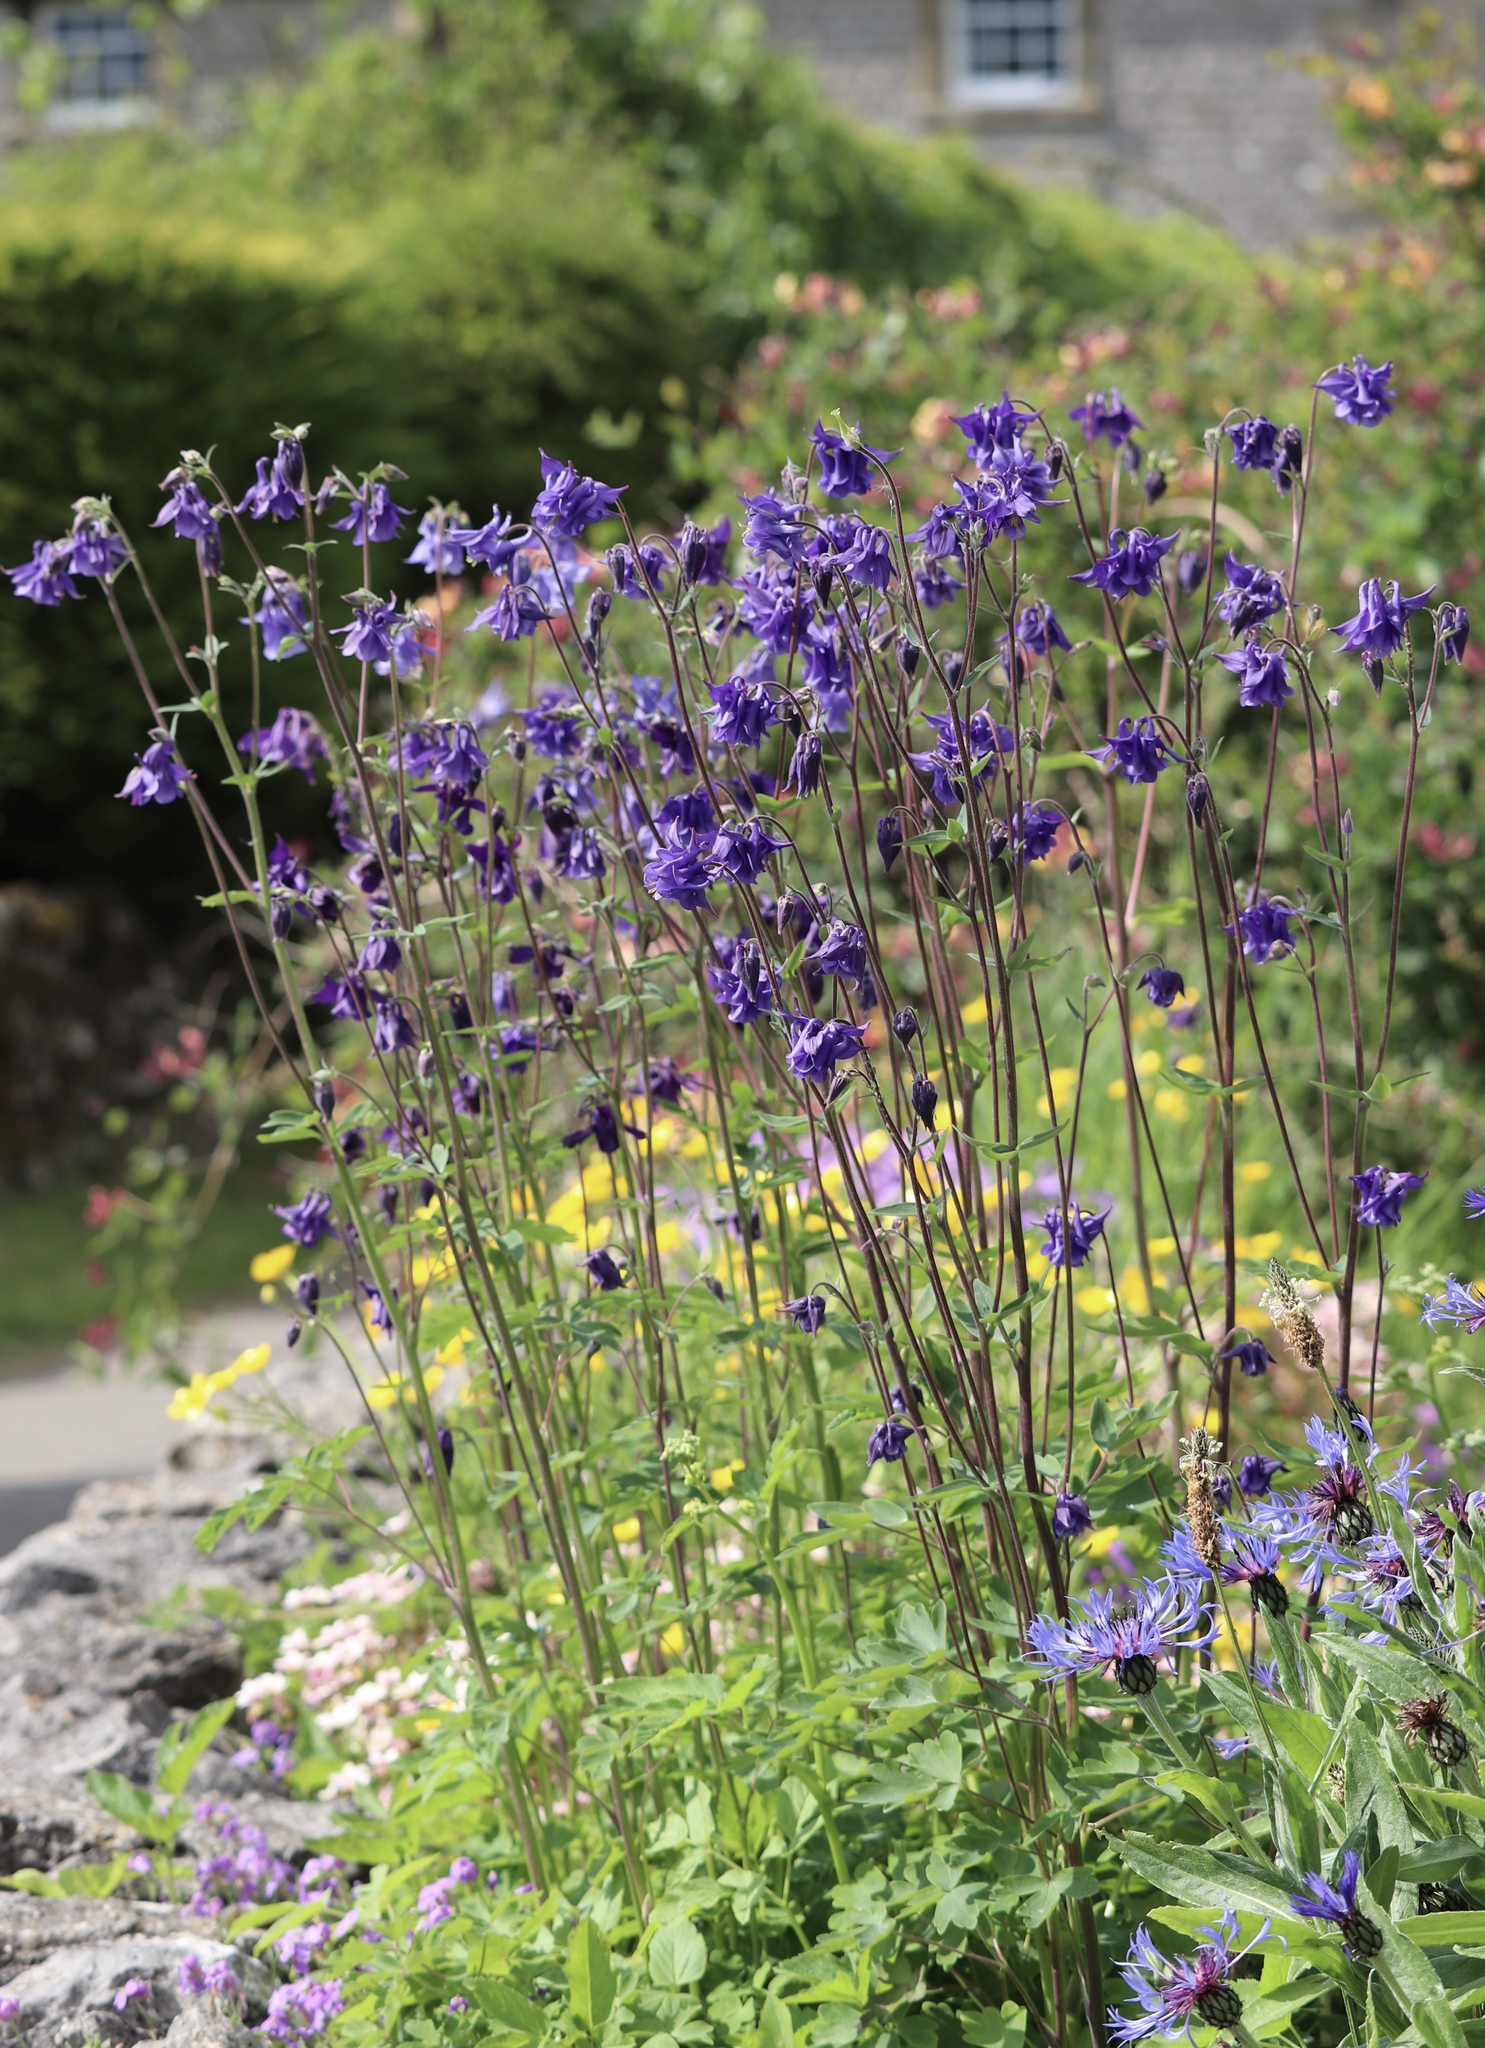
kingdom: Plantae
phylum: Tracheophyta
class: Magnoliopsida
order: Ranunculales
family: Ranunculaceae
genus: Aquilegia
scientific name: Aquilegia vulgaris
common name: Columbine
